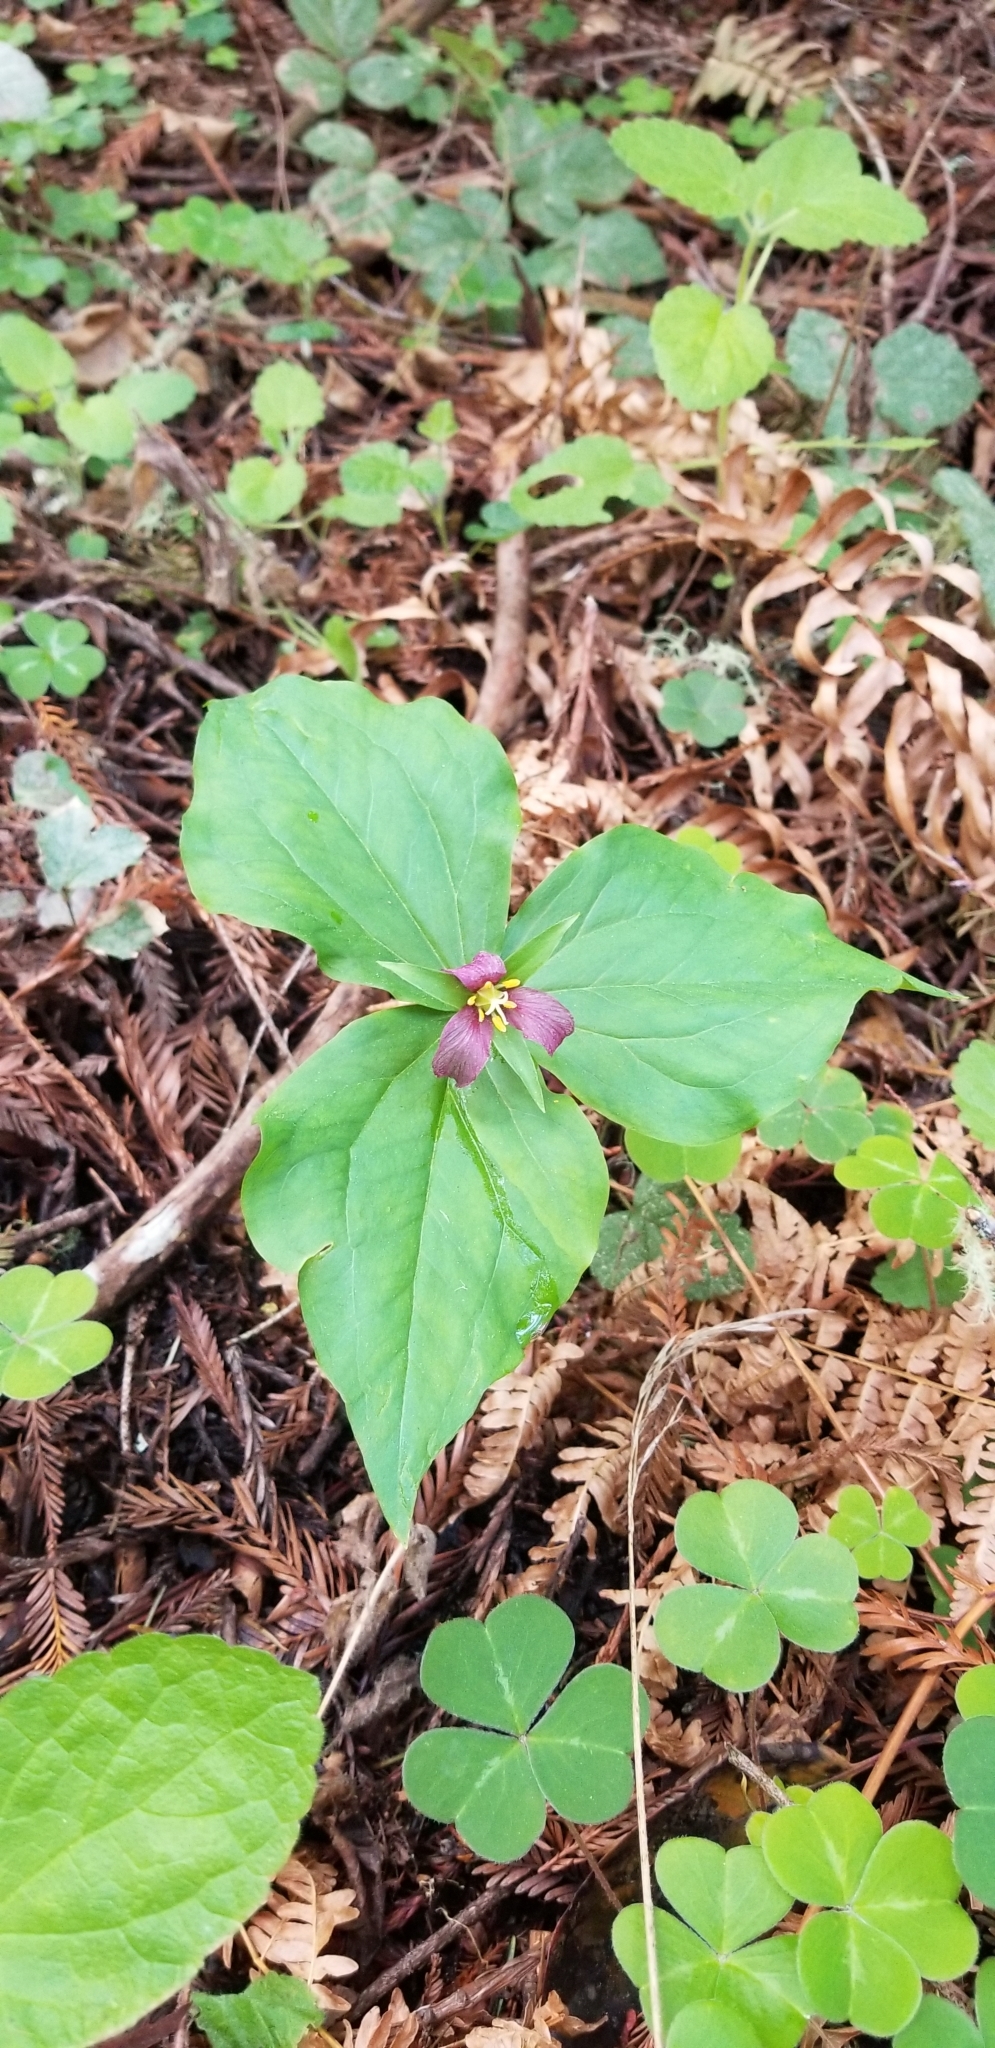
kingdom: Plantae
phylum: Tracheophyta
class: Liliopsida
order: Liliales
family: Melanthiaceae
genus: Trillium
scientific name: Trillium ovatum
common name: Pacific trillium
